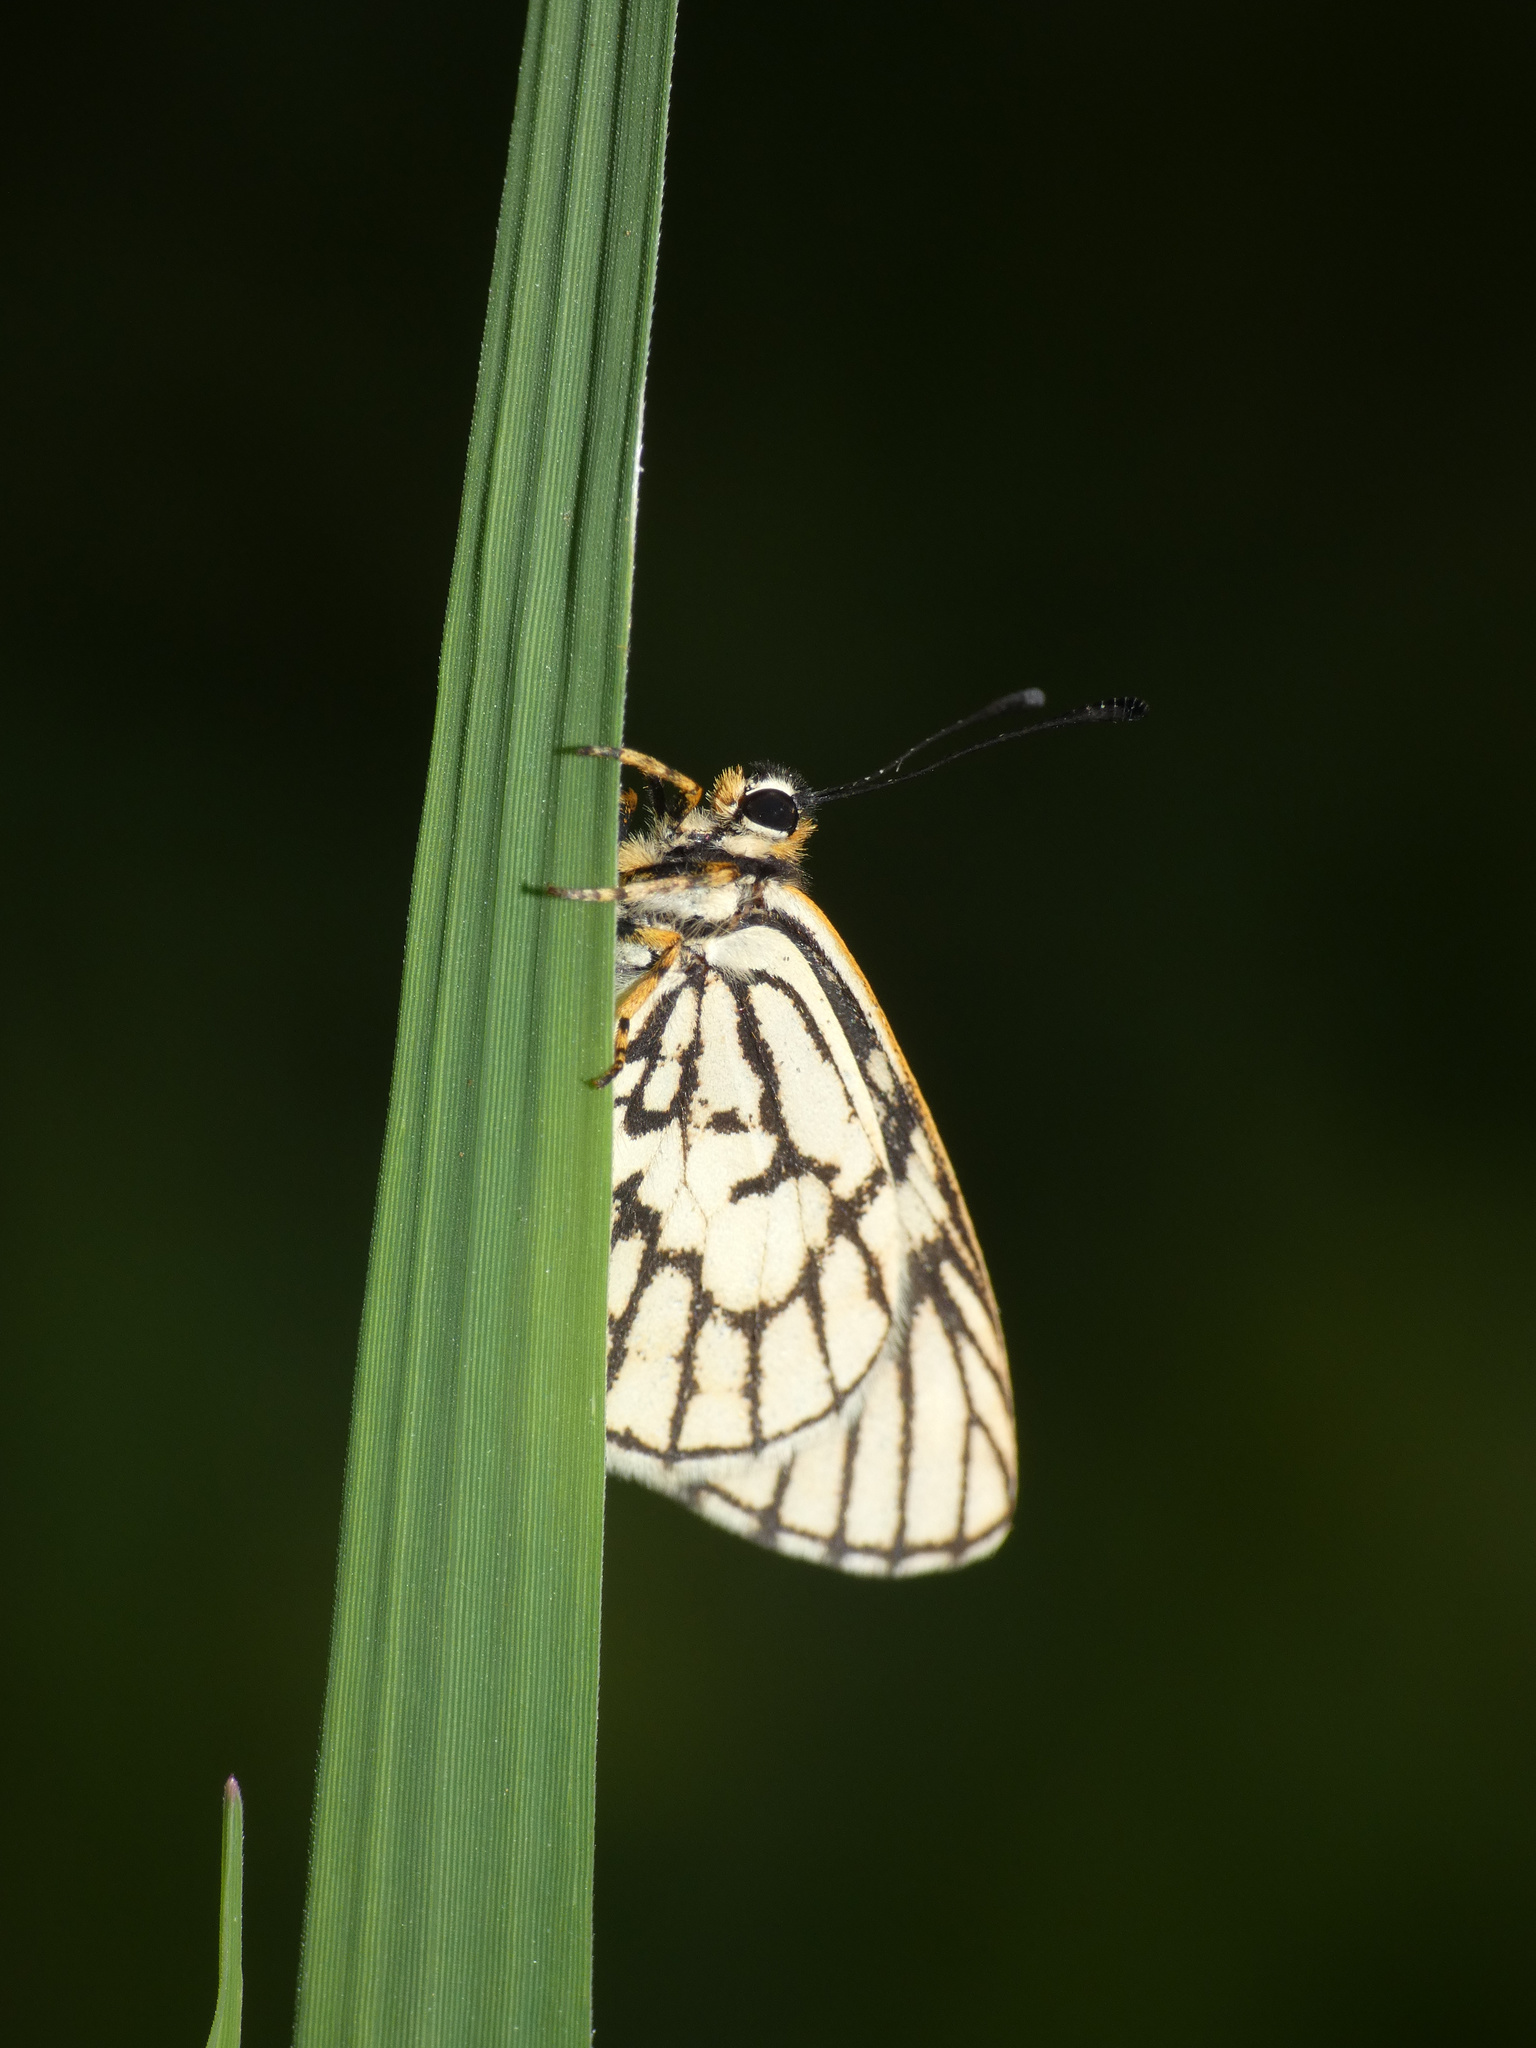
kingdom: Animalia
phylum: Arthropoda
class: Insecta
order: Lepidoptera
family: Lycaenidae
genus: Alaena
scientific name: Alaena nyassa
